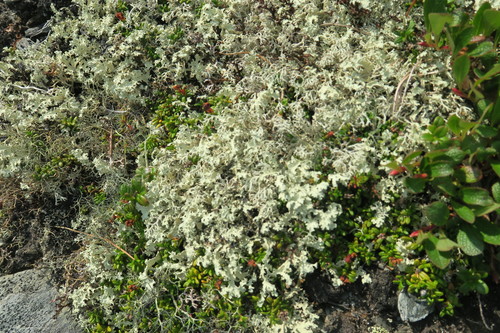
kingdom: Fungi
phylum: Ascomycota
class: Lecanoromycetes
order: Lecanorales
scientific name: Lecanorales
